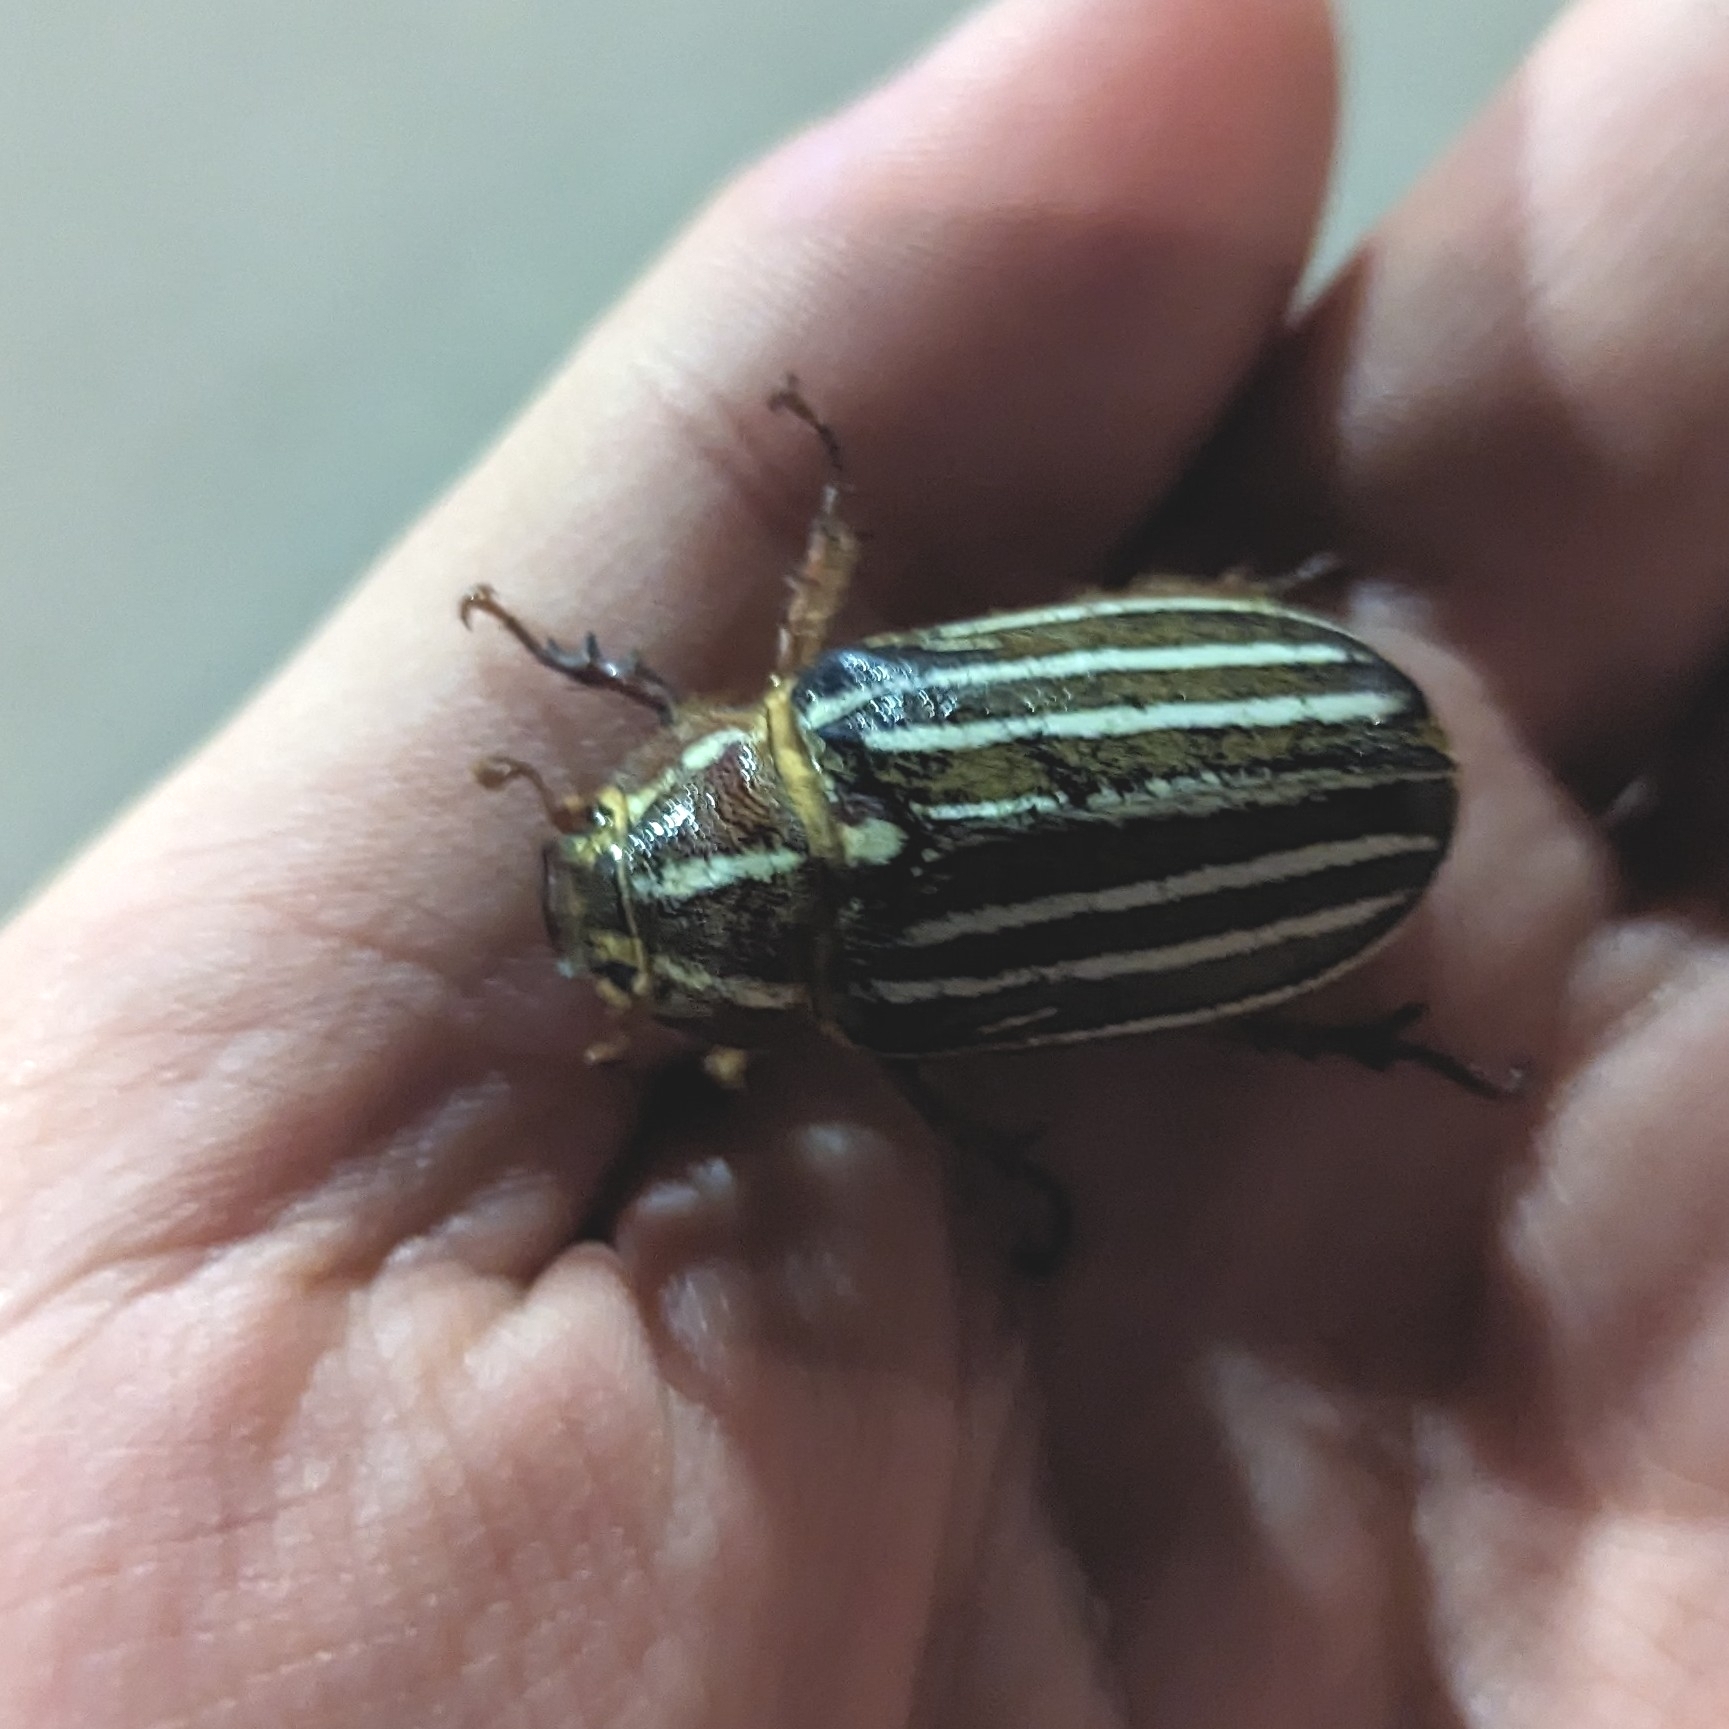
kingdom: Animalia
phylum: Arthropoda
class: Insecta
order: Coleoptera
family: Scarabaeidae
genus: Polyphylla
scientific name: Polyphylla crinita
